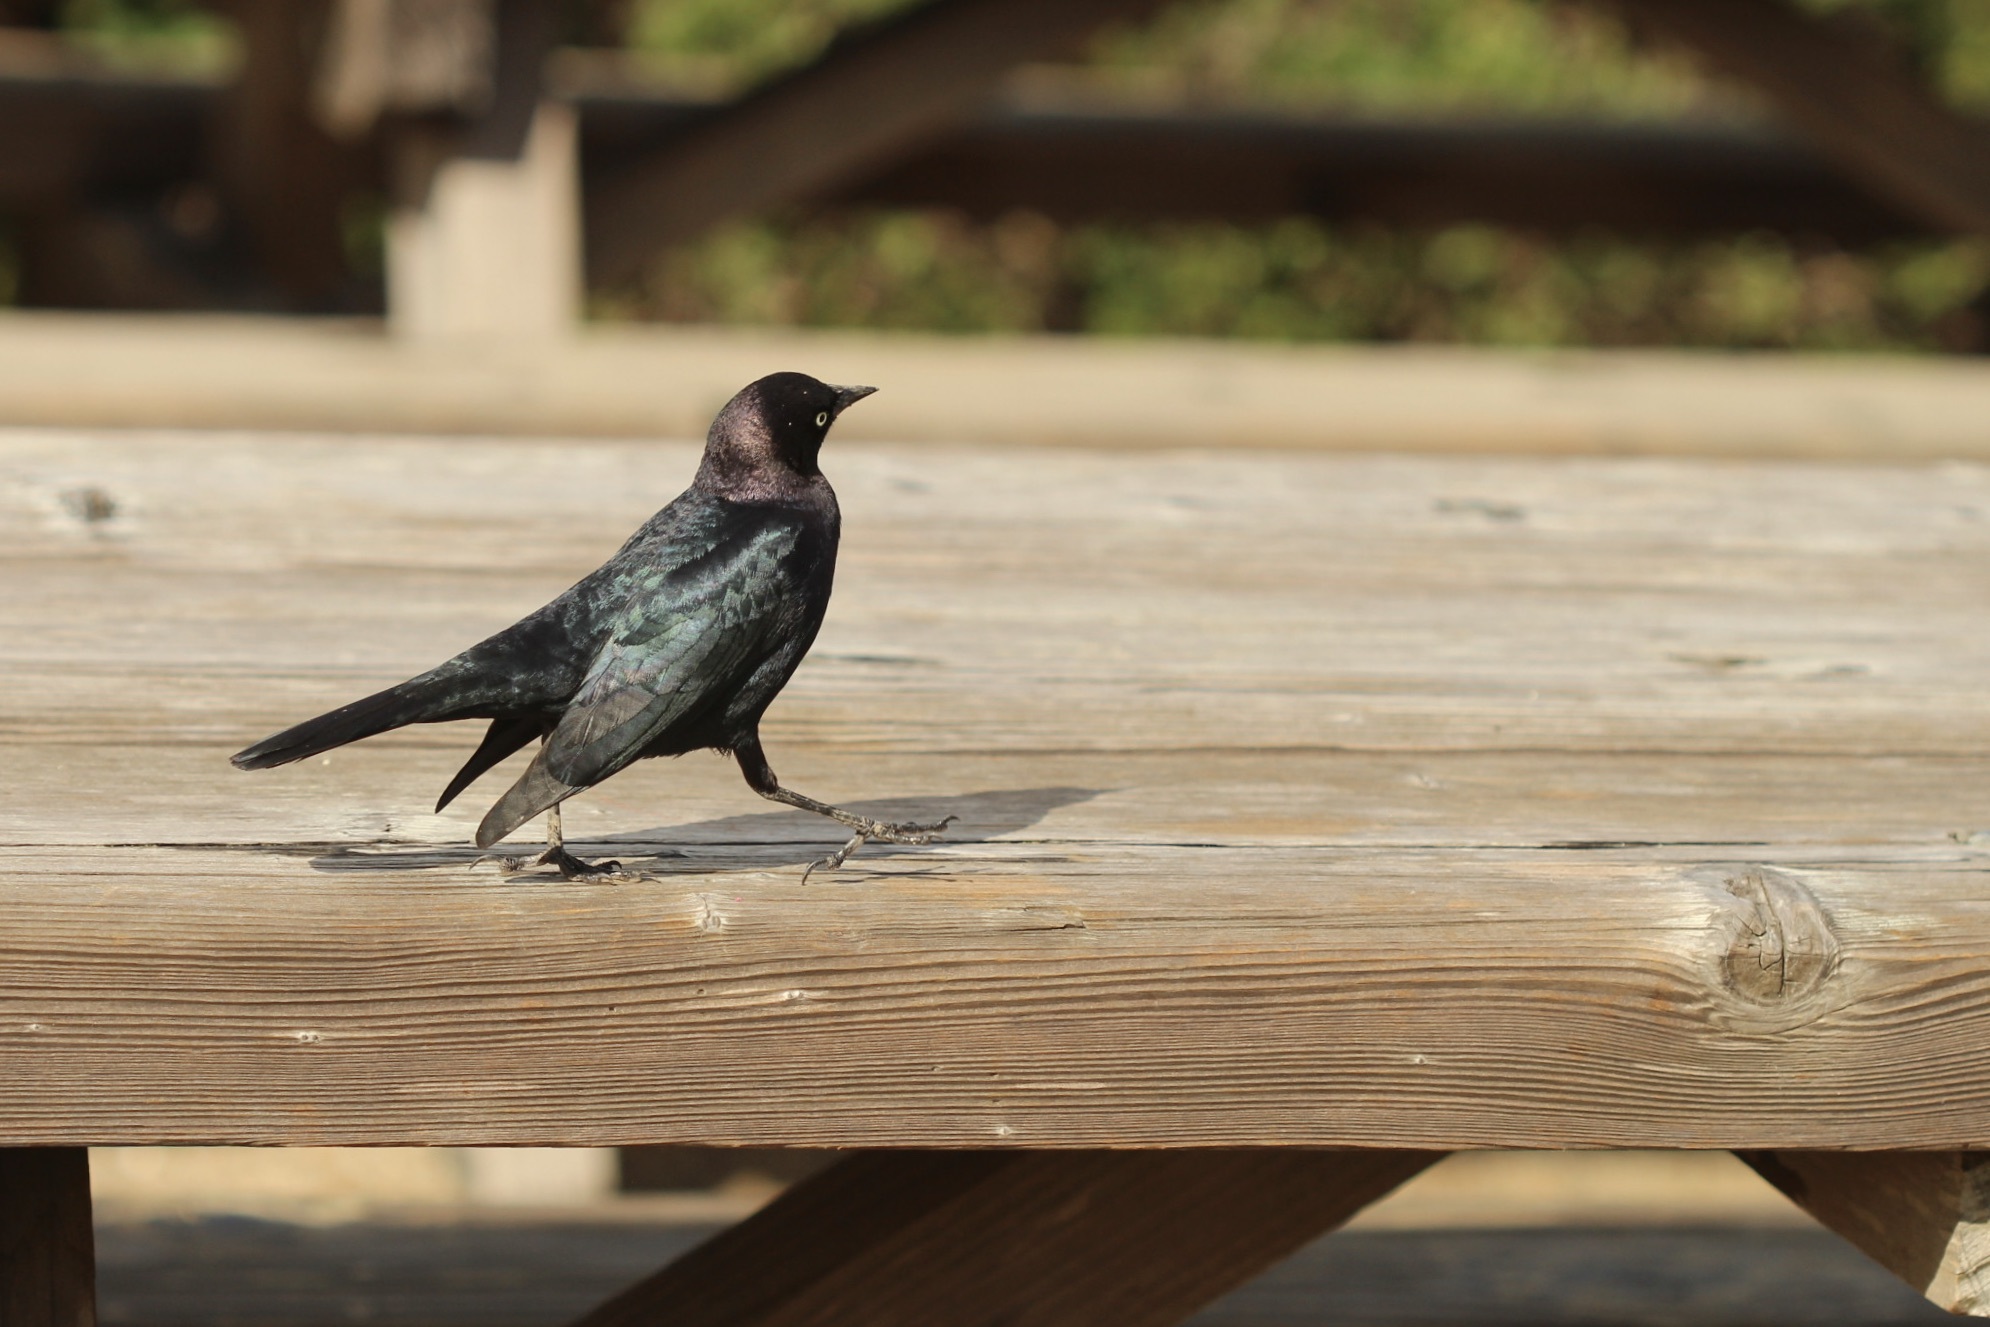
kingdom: Animalia
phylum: Chordata
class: Aves
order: Passeriformes
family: Icteridae
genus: Euphagus
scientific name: Euphagus cyanocephalus
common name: Brewer's blackbird
